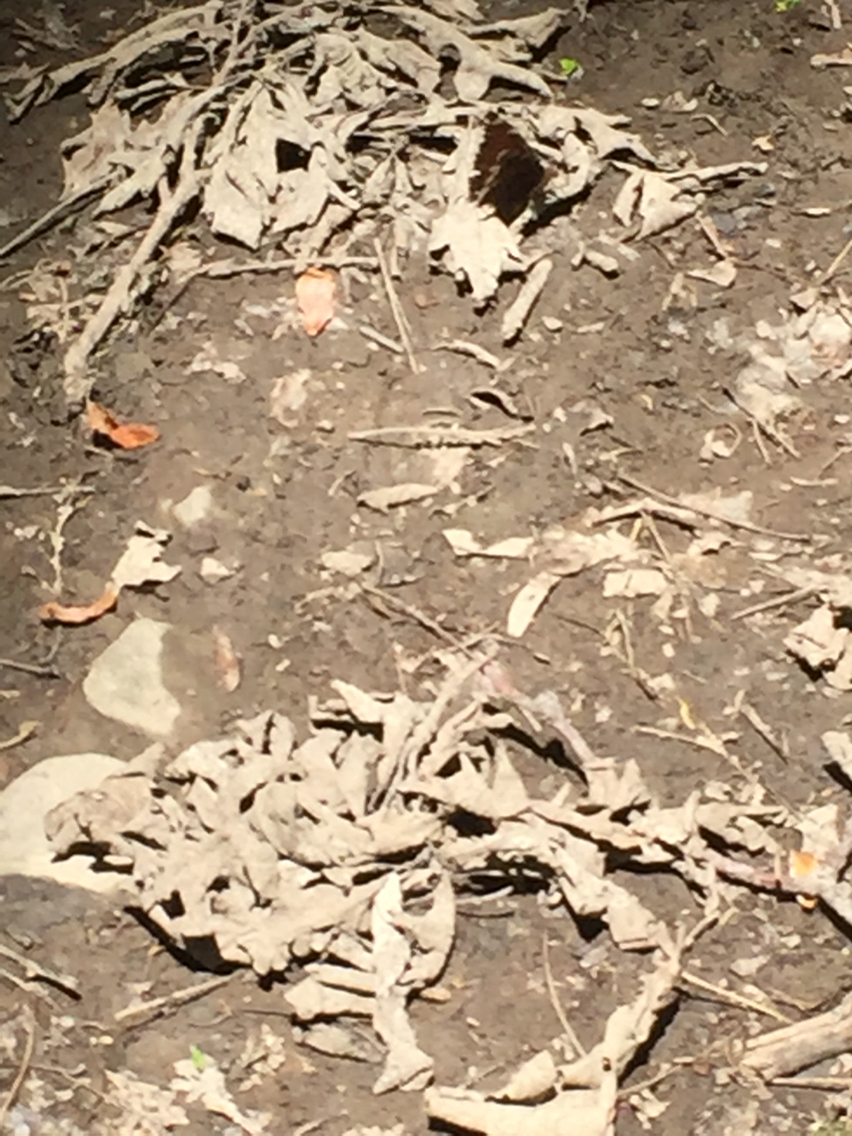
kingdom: Animalia
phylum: Arthropoda
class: Insecta
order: Lepidoptera
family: Nymphalidae
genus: Nymphalis
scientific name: Nymphalis antiopa
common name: Camberwell beauty
